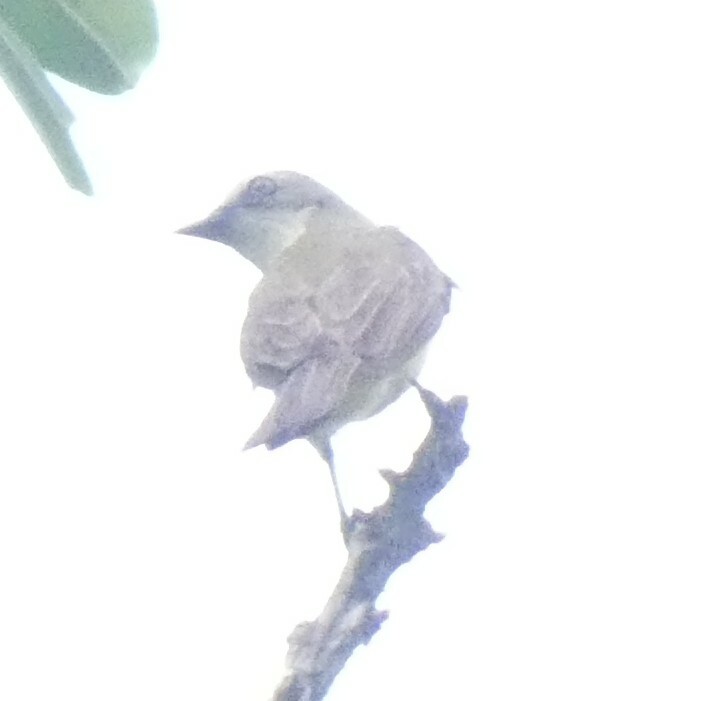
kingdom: Animalia
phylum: Chordata
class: Aves
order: Passeriformes
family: Tyrannidae
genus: Myiozetetes
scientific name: Myiozetetes granadensis
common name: Gray-capped flycatcher
